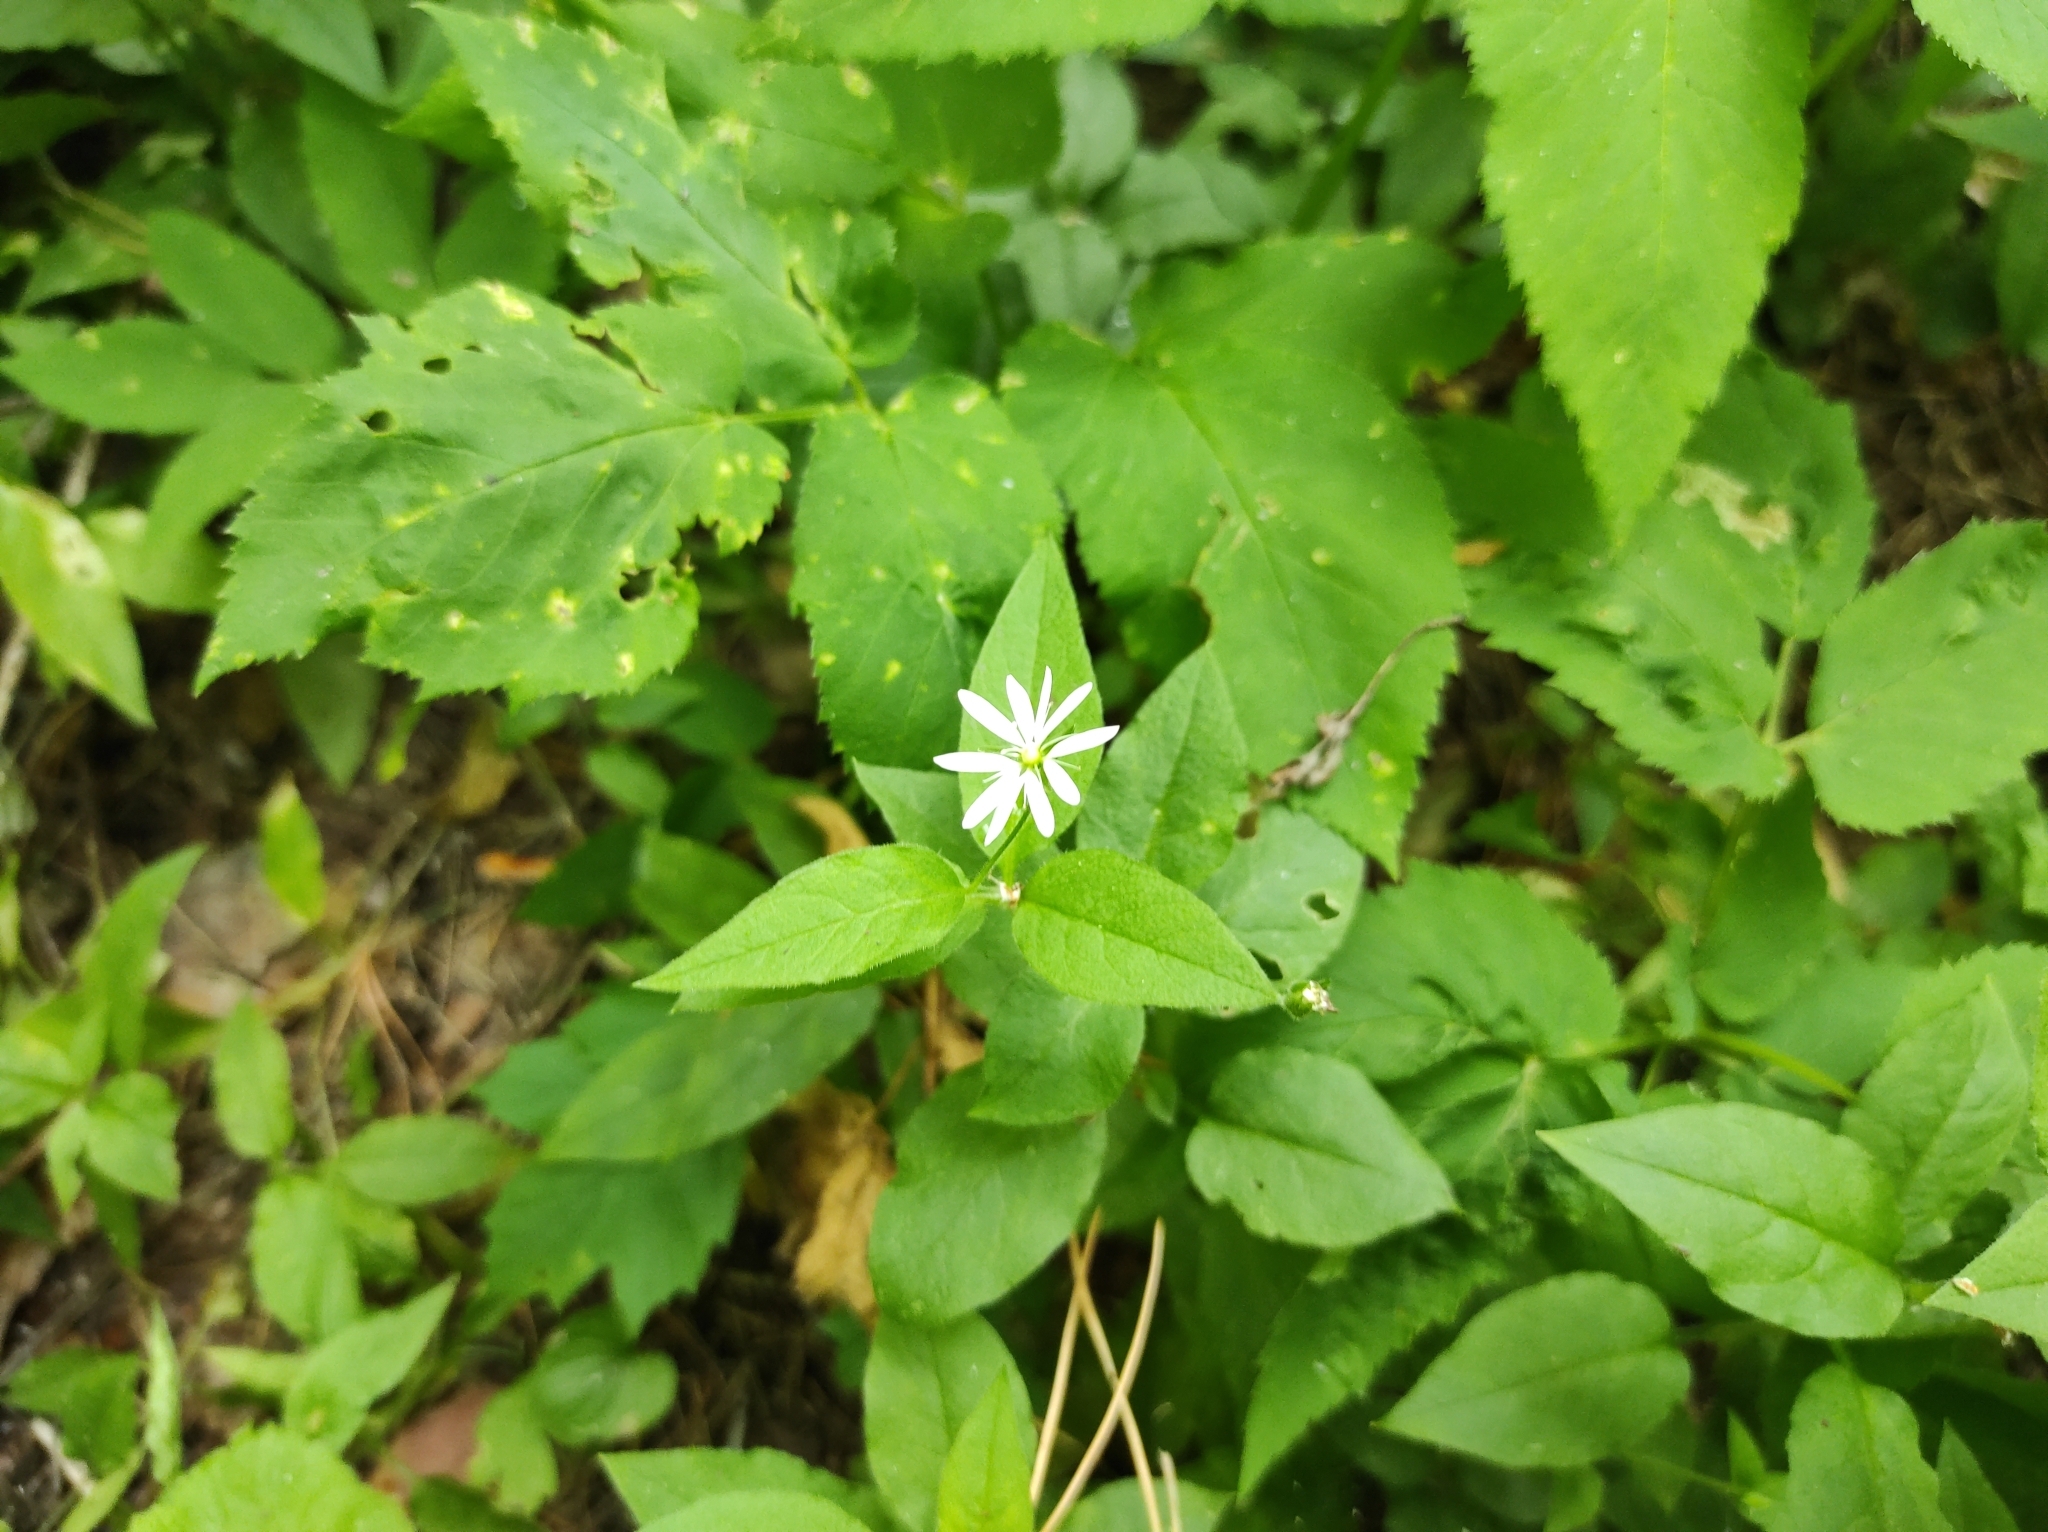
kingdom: Plantae
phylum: Tracheophyta
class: Magnoliopsida
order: Caryophyllales
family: Caryophyllaceae
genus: Stellaria
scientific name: Stellaria bungeana
